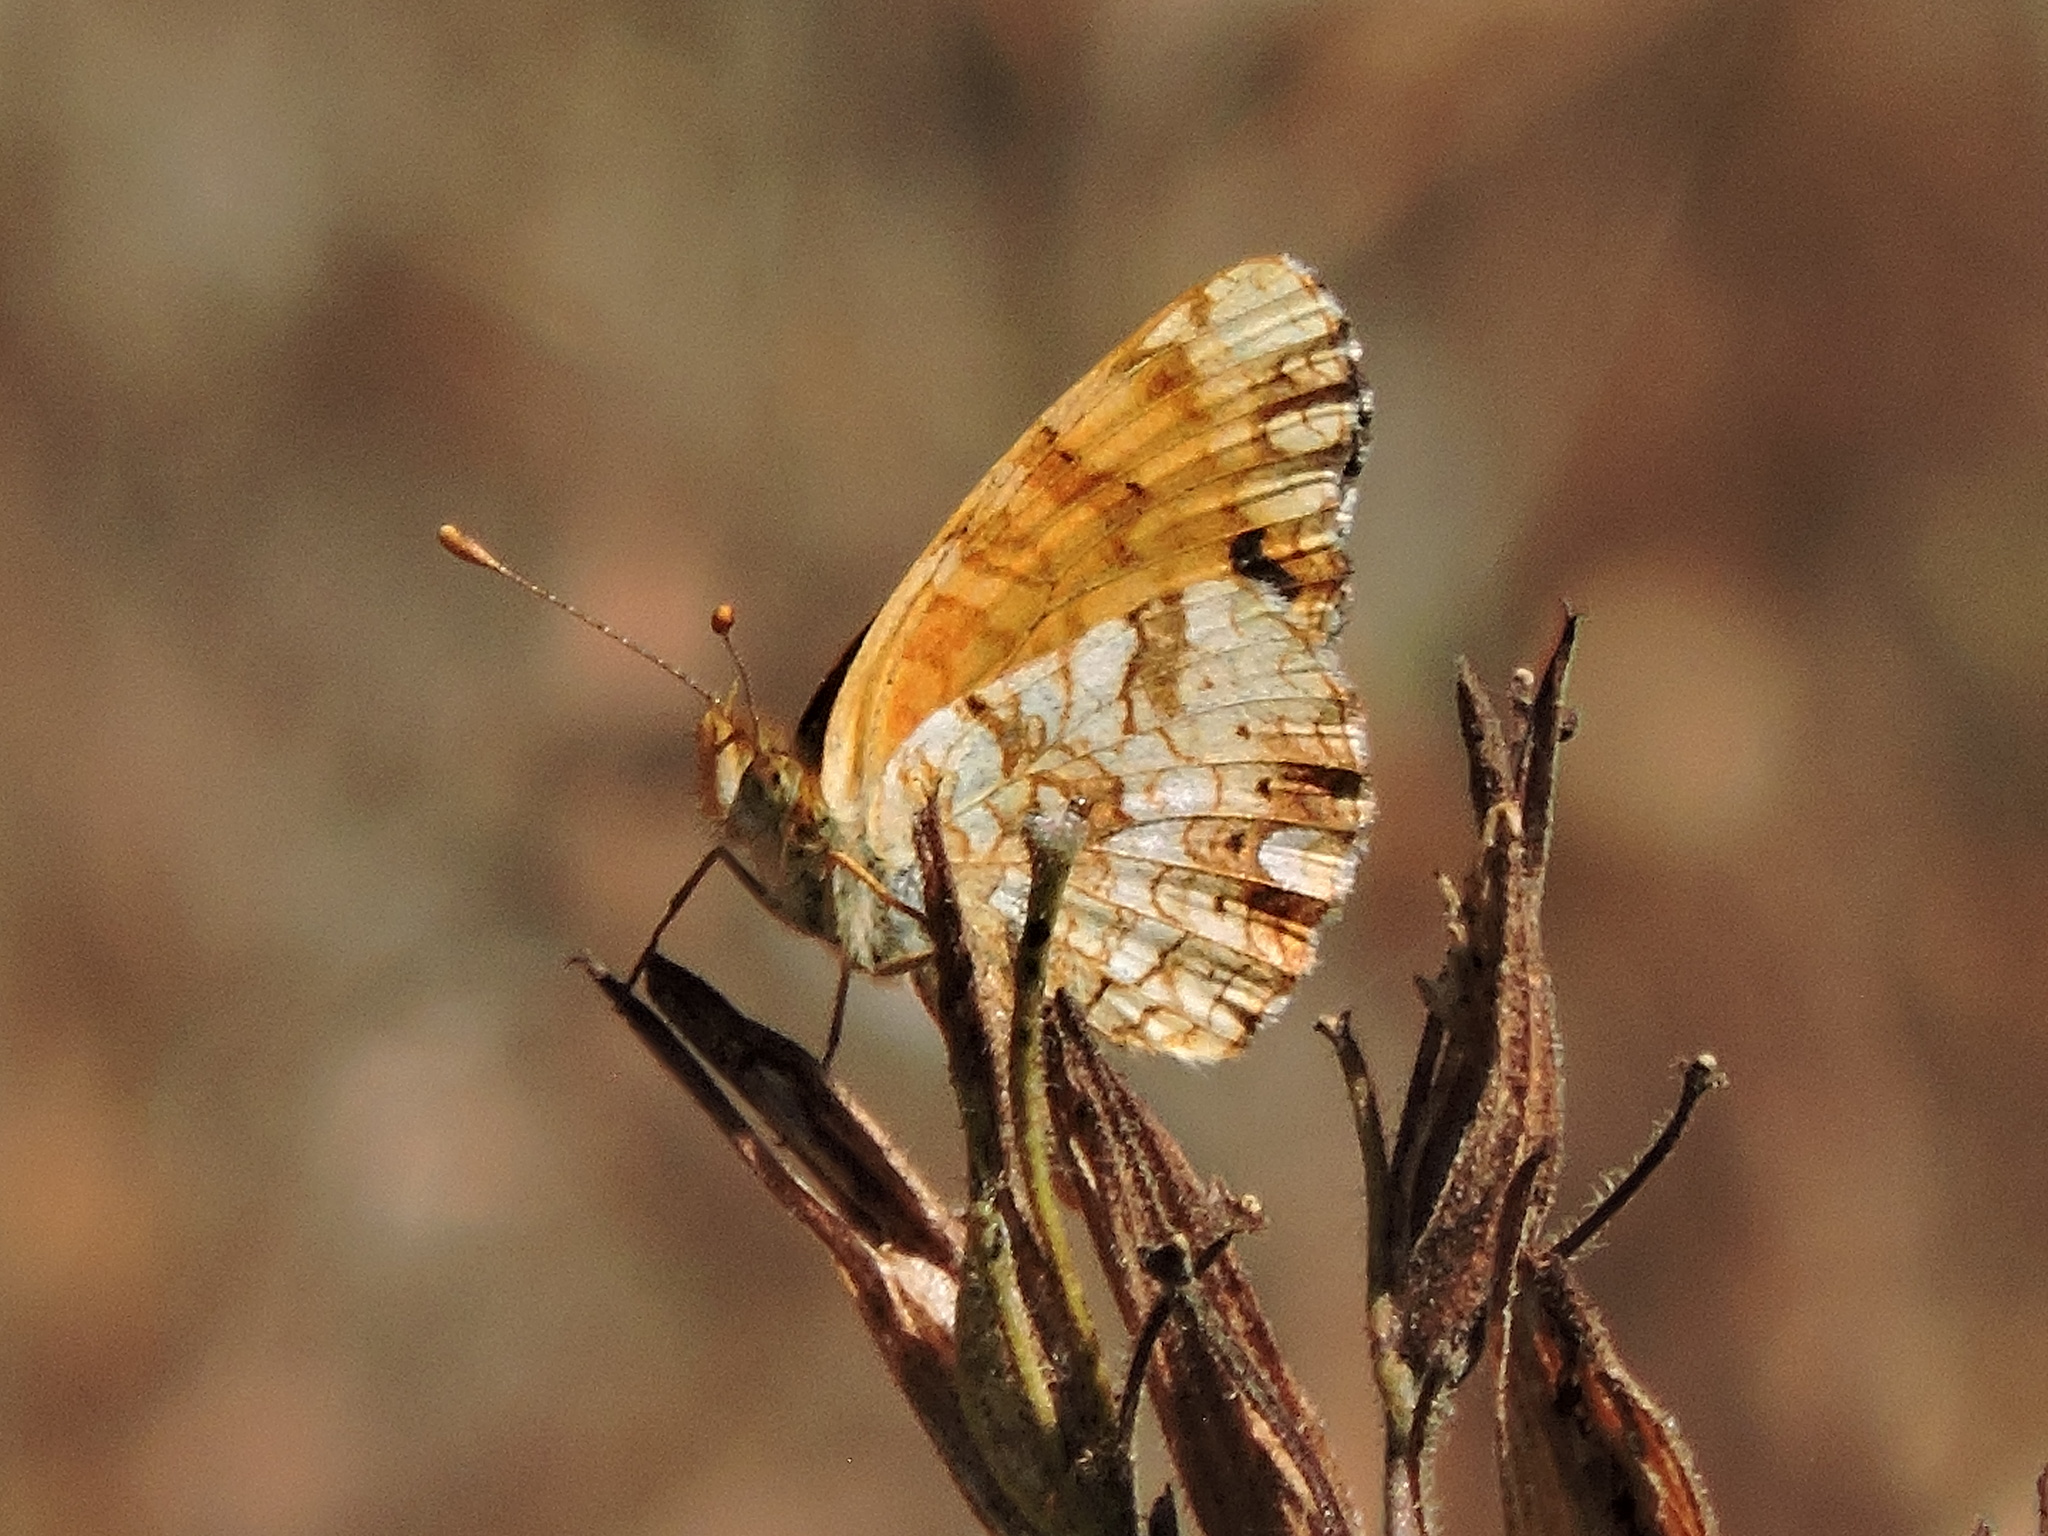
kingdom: Animalia
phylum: Arthropoda
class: Insecta
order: Lepidoptera
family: Nymphalidae
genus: Eresia
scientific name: Eresia aveyrona
